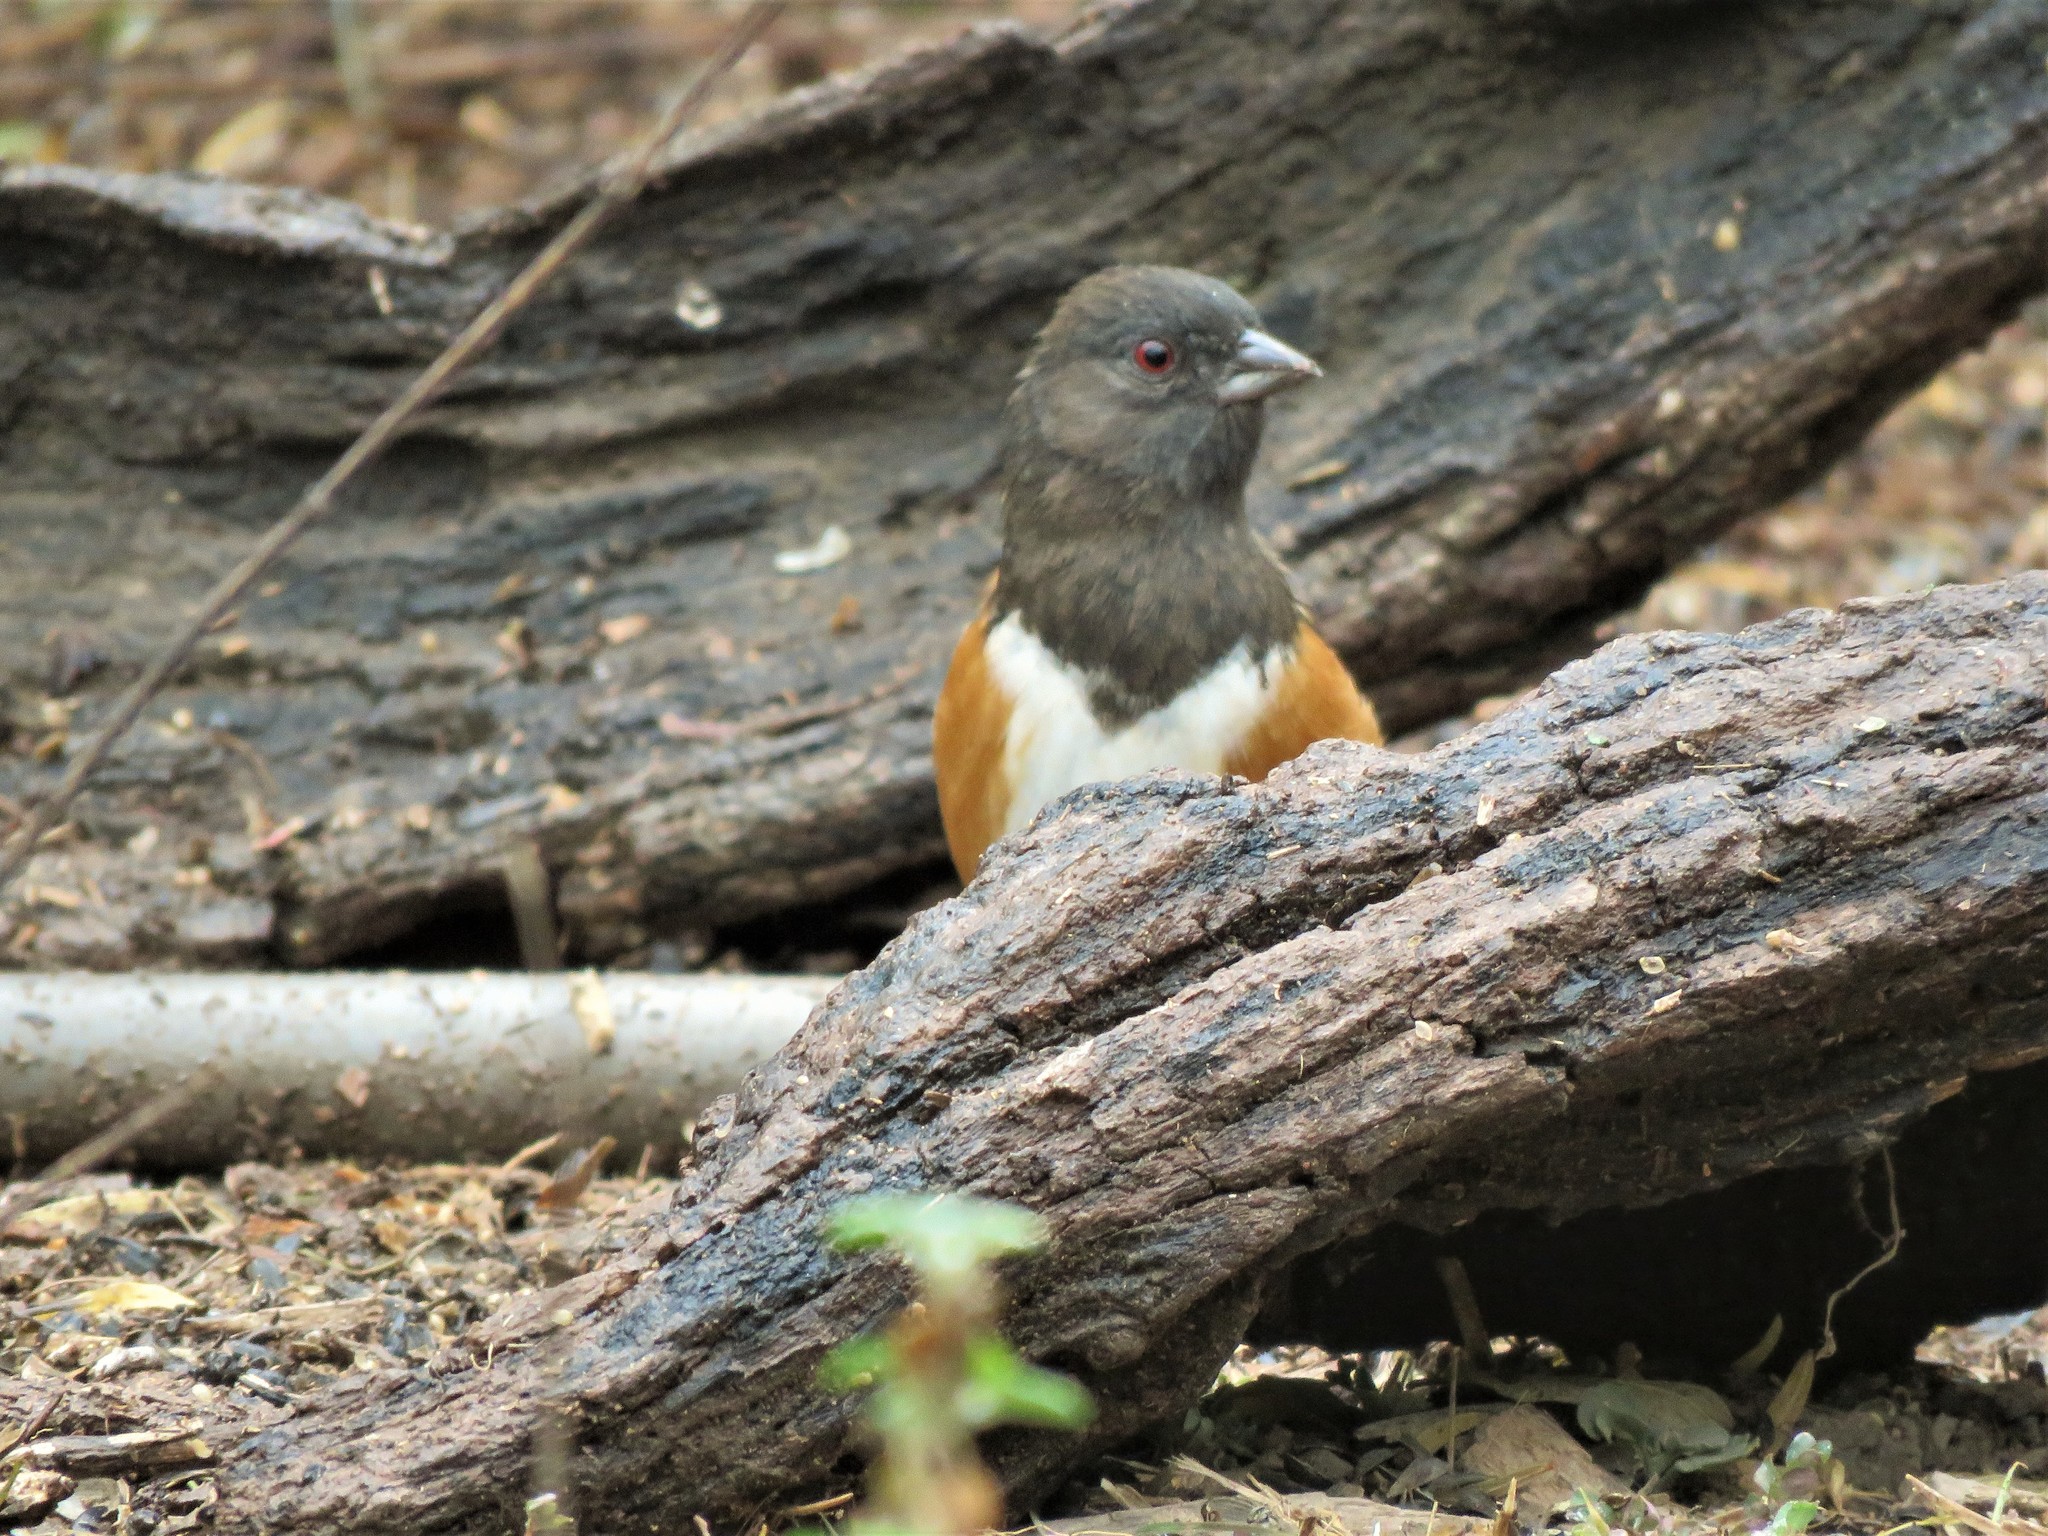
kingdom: Animalia
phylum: Chordata
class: Aves
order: Passeriformes
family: Passerellidae
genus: Pipilo
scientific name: Pipilo maculatus
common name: Spotted towhee
